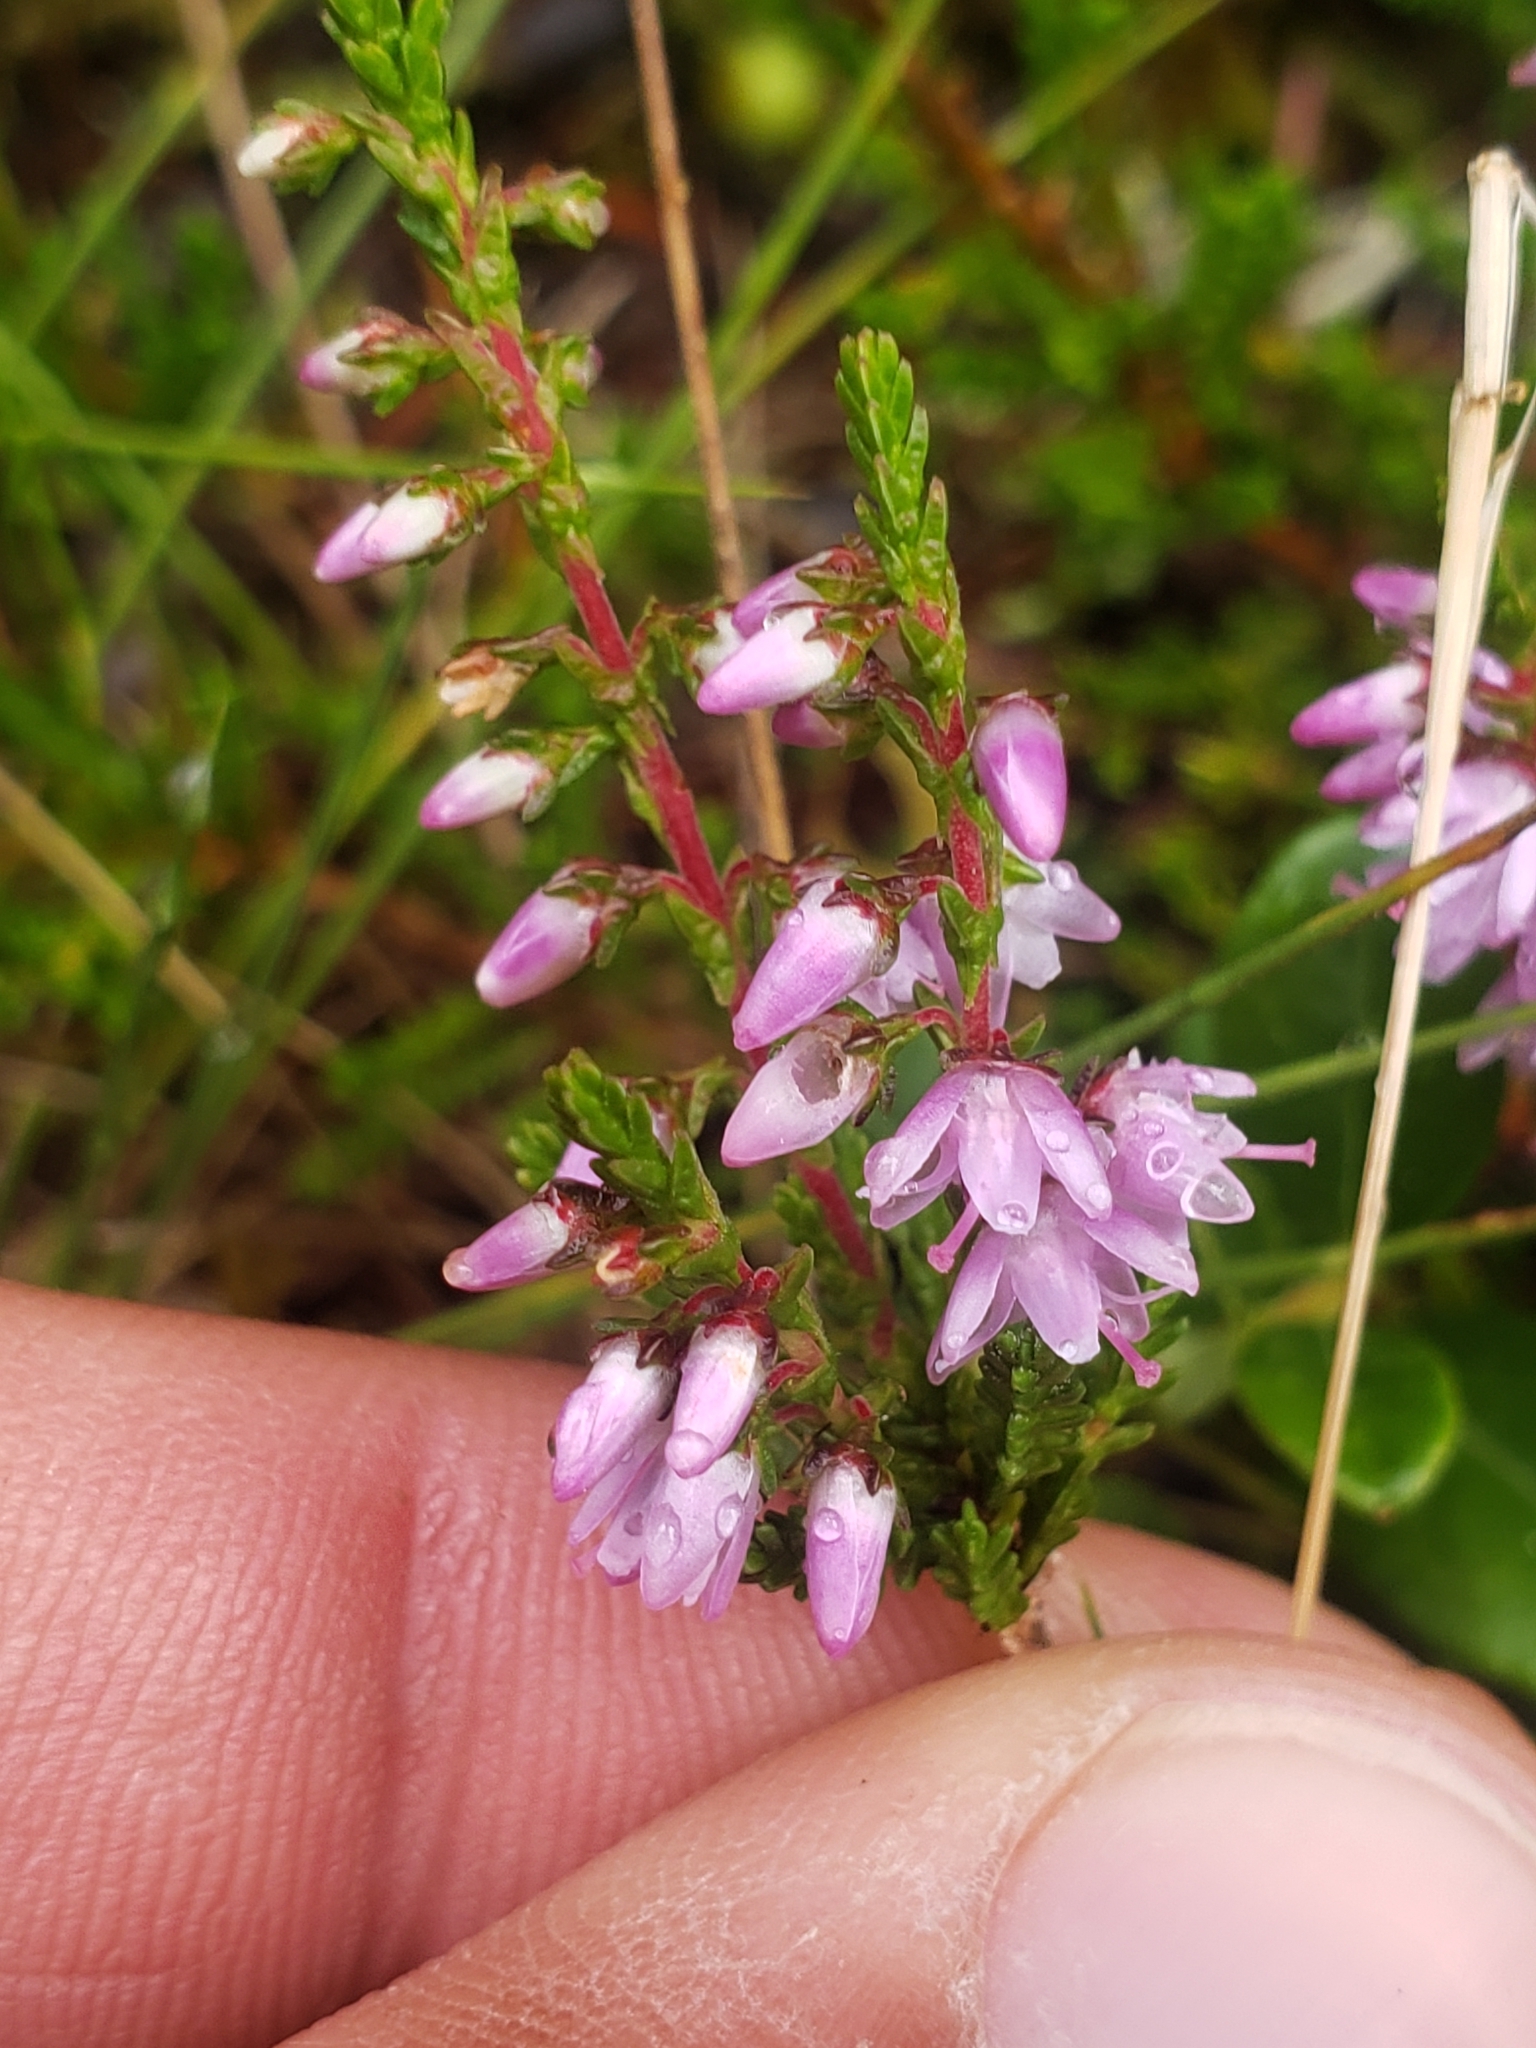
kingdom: Plantae
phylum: Tracheophyta
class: Magnoliopsida
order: Ericales
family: Ericaceae
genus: Calluna
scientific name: Calluna vulgaris
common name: Heather
